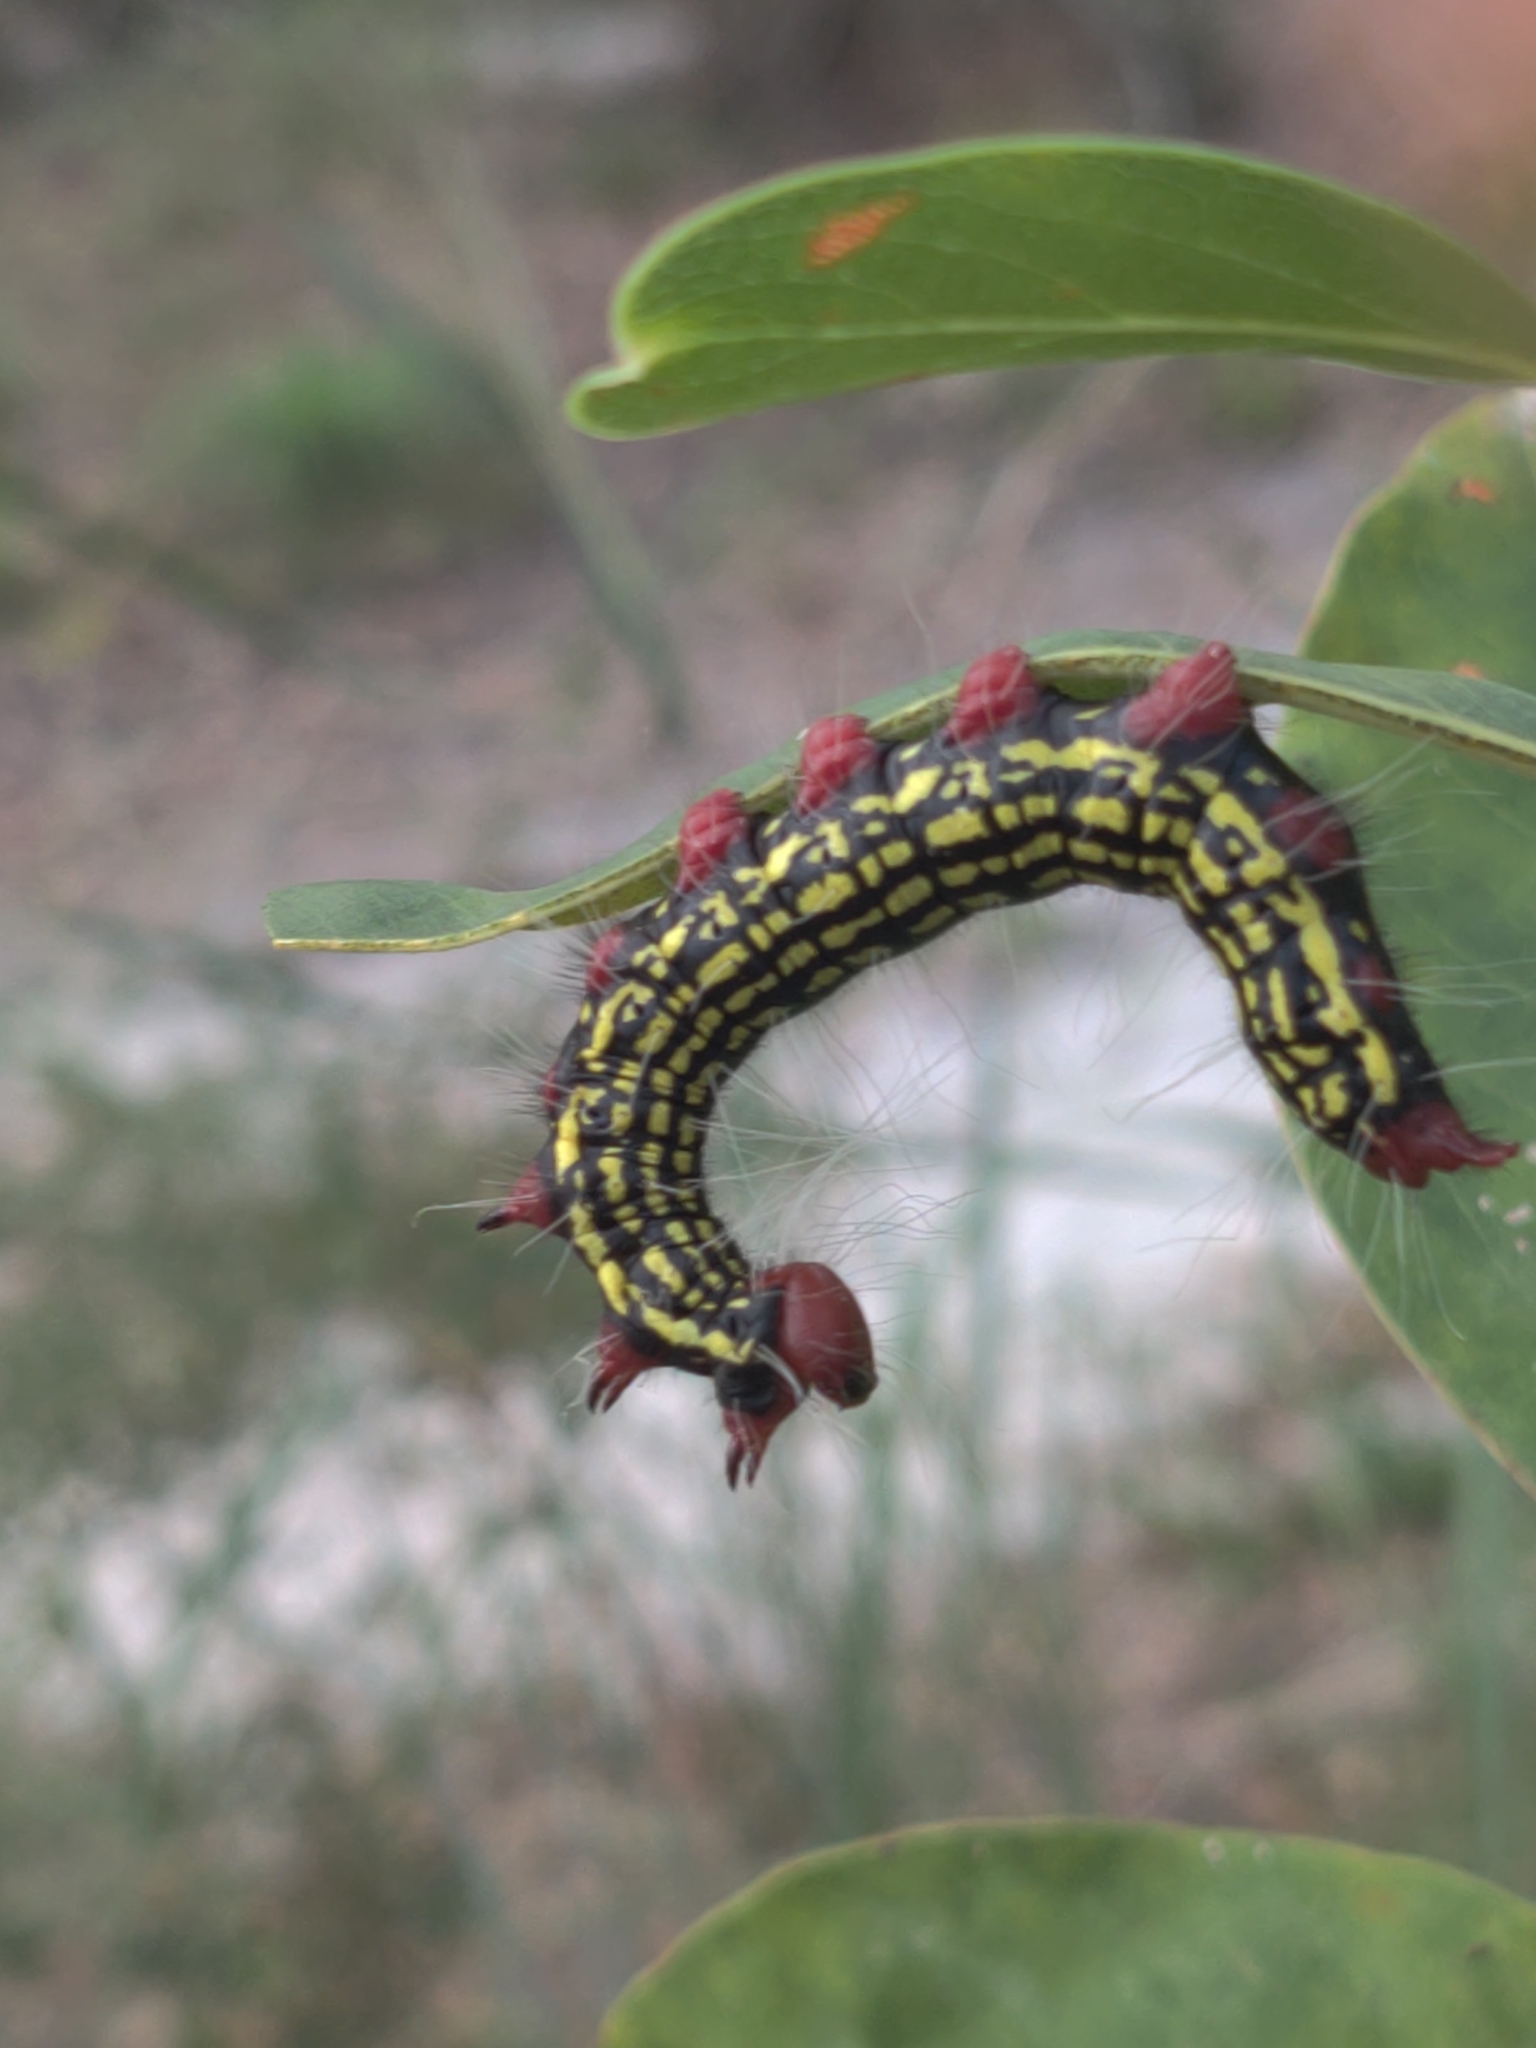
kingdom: Animalia
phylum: Arthropoda
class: Insecta
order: Lepidoptera
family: Notodontidae
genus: Datana
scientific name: Datana major
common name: Azalea caterpillar
